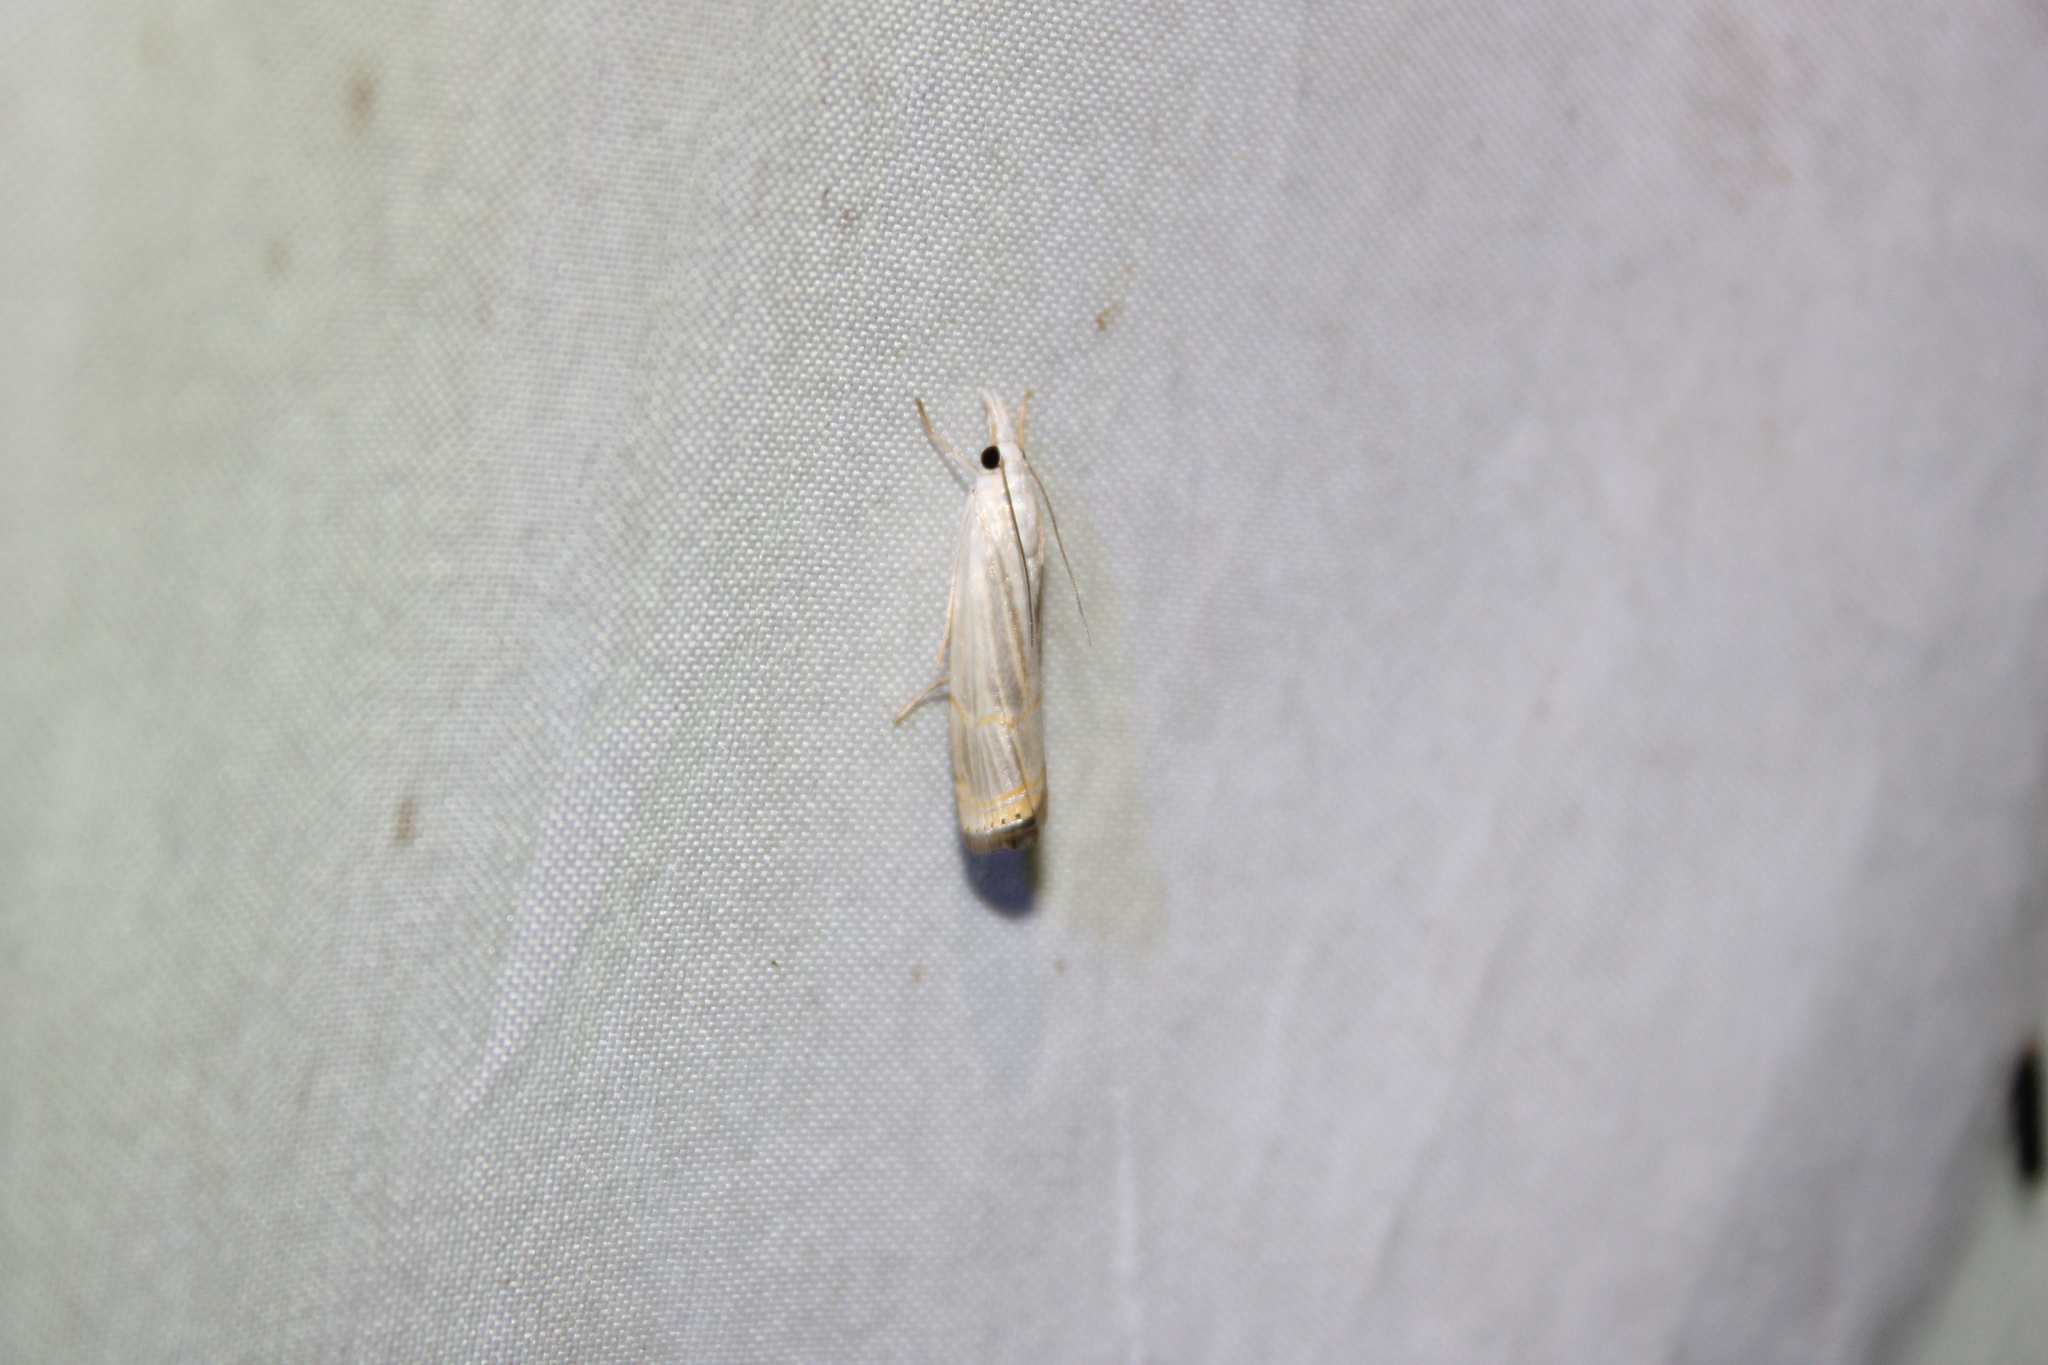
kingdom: Animalia
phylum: Arthropoda
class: Insecta
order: Lepidoptera
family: Crambidae
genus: Parapediasia
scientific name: Parapediasia decorellus
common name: Graceful grass-veneer
